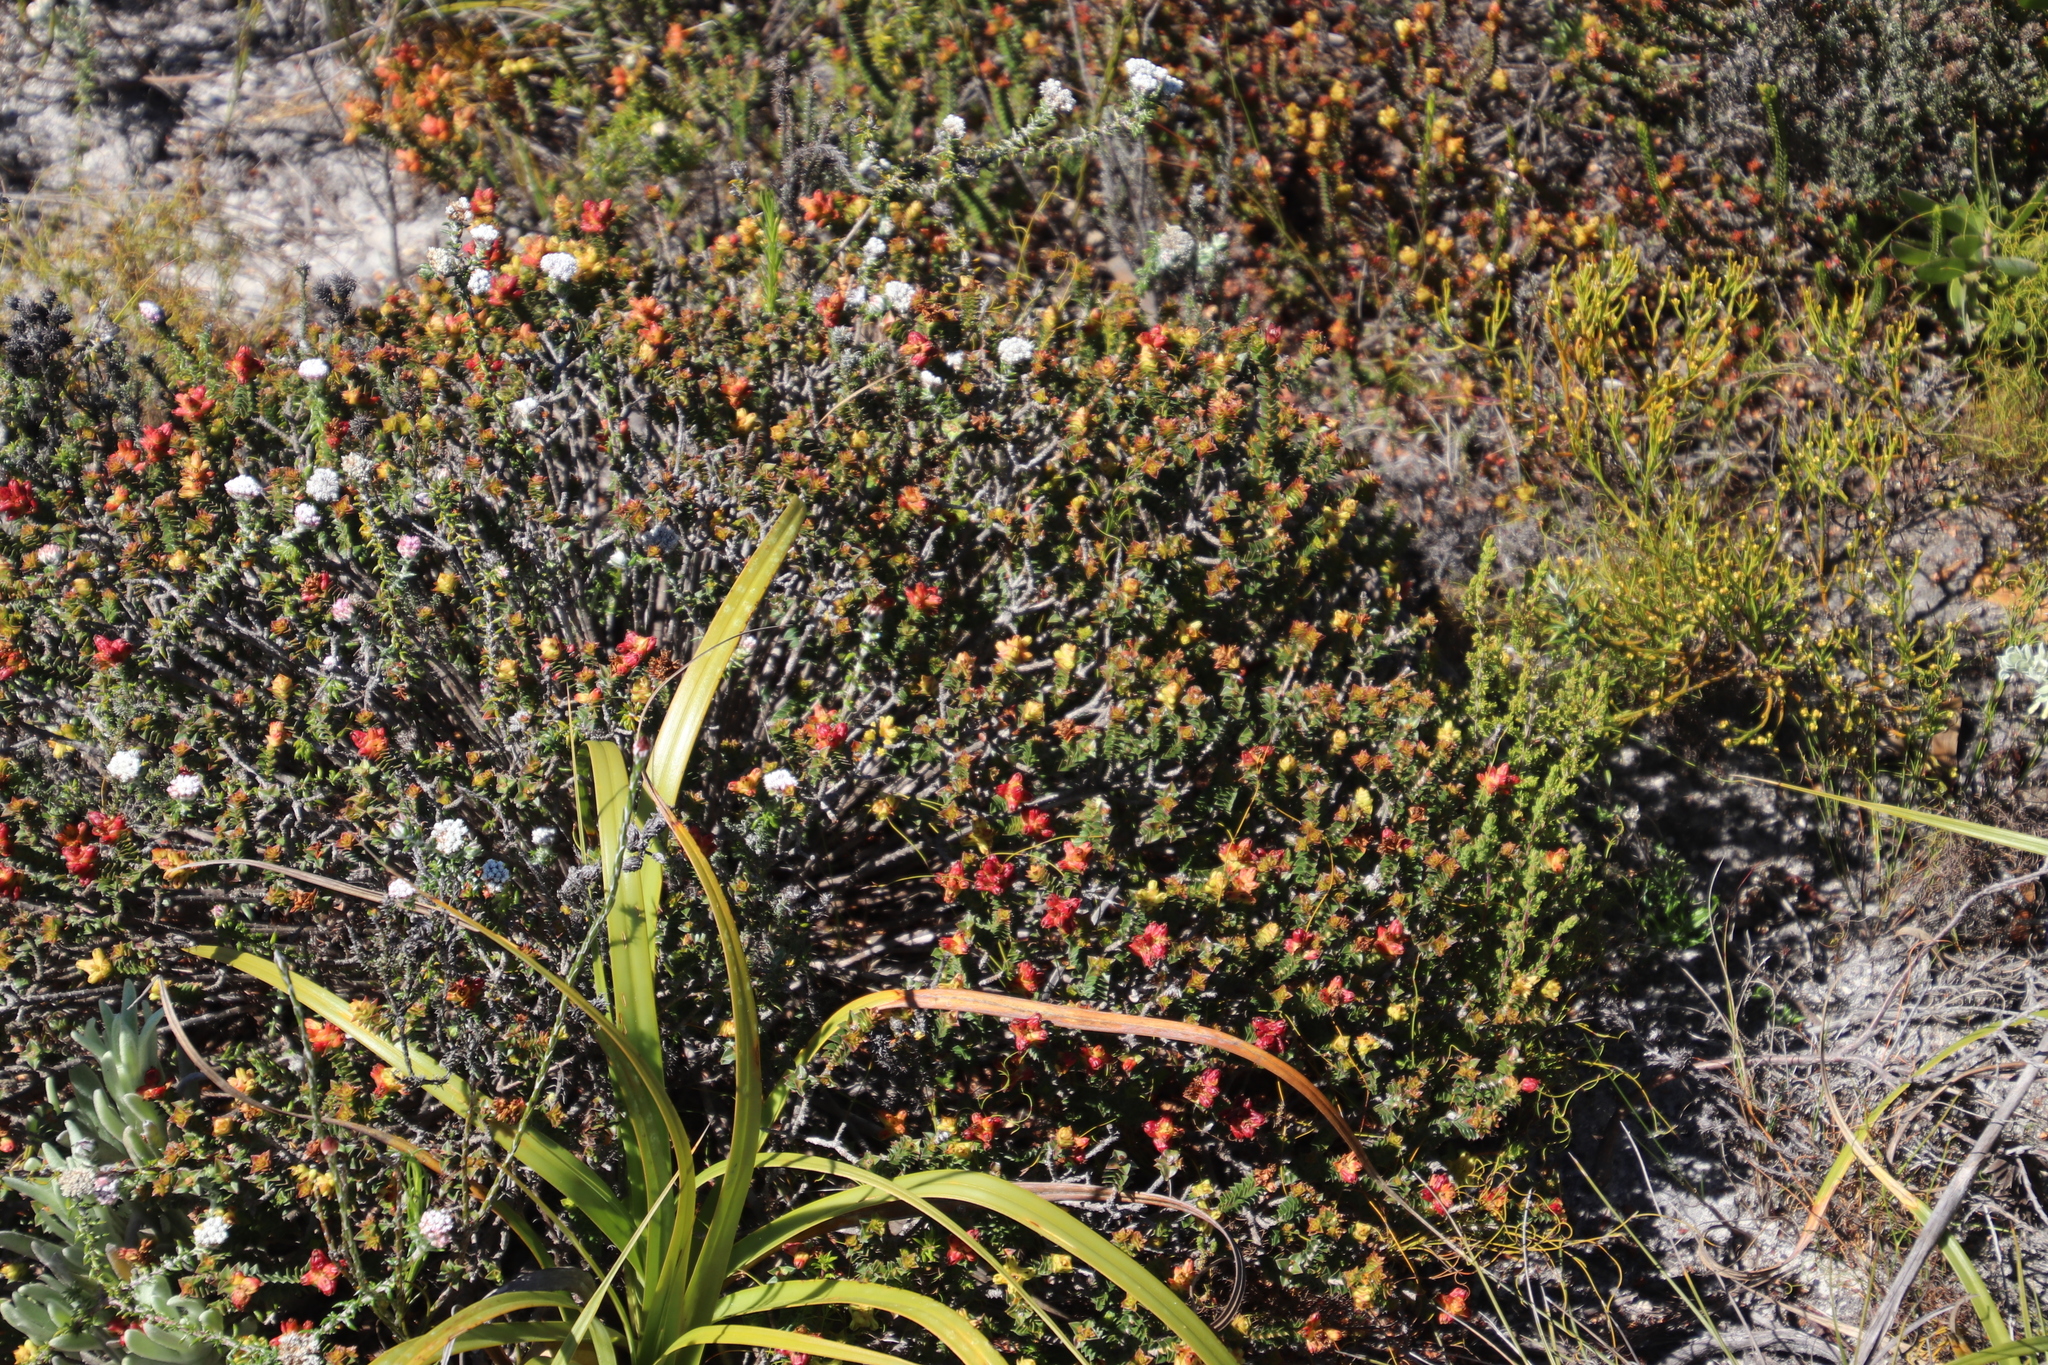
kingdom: Plantae
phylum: Tracheophyta
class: Magnoliopsida
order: Myrtales
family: Penaeaceae
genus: Penaea
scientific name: Penaea mucronata
